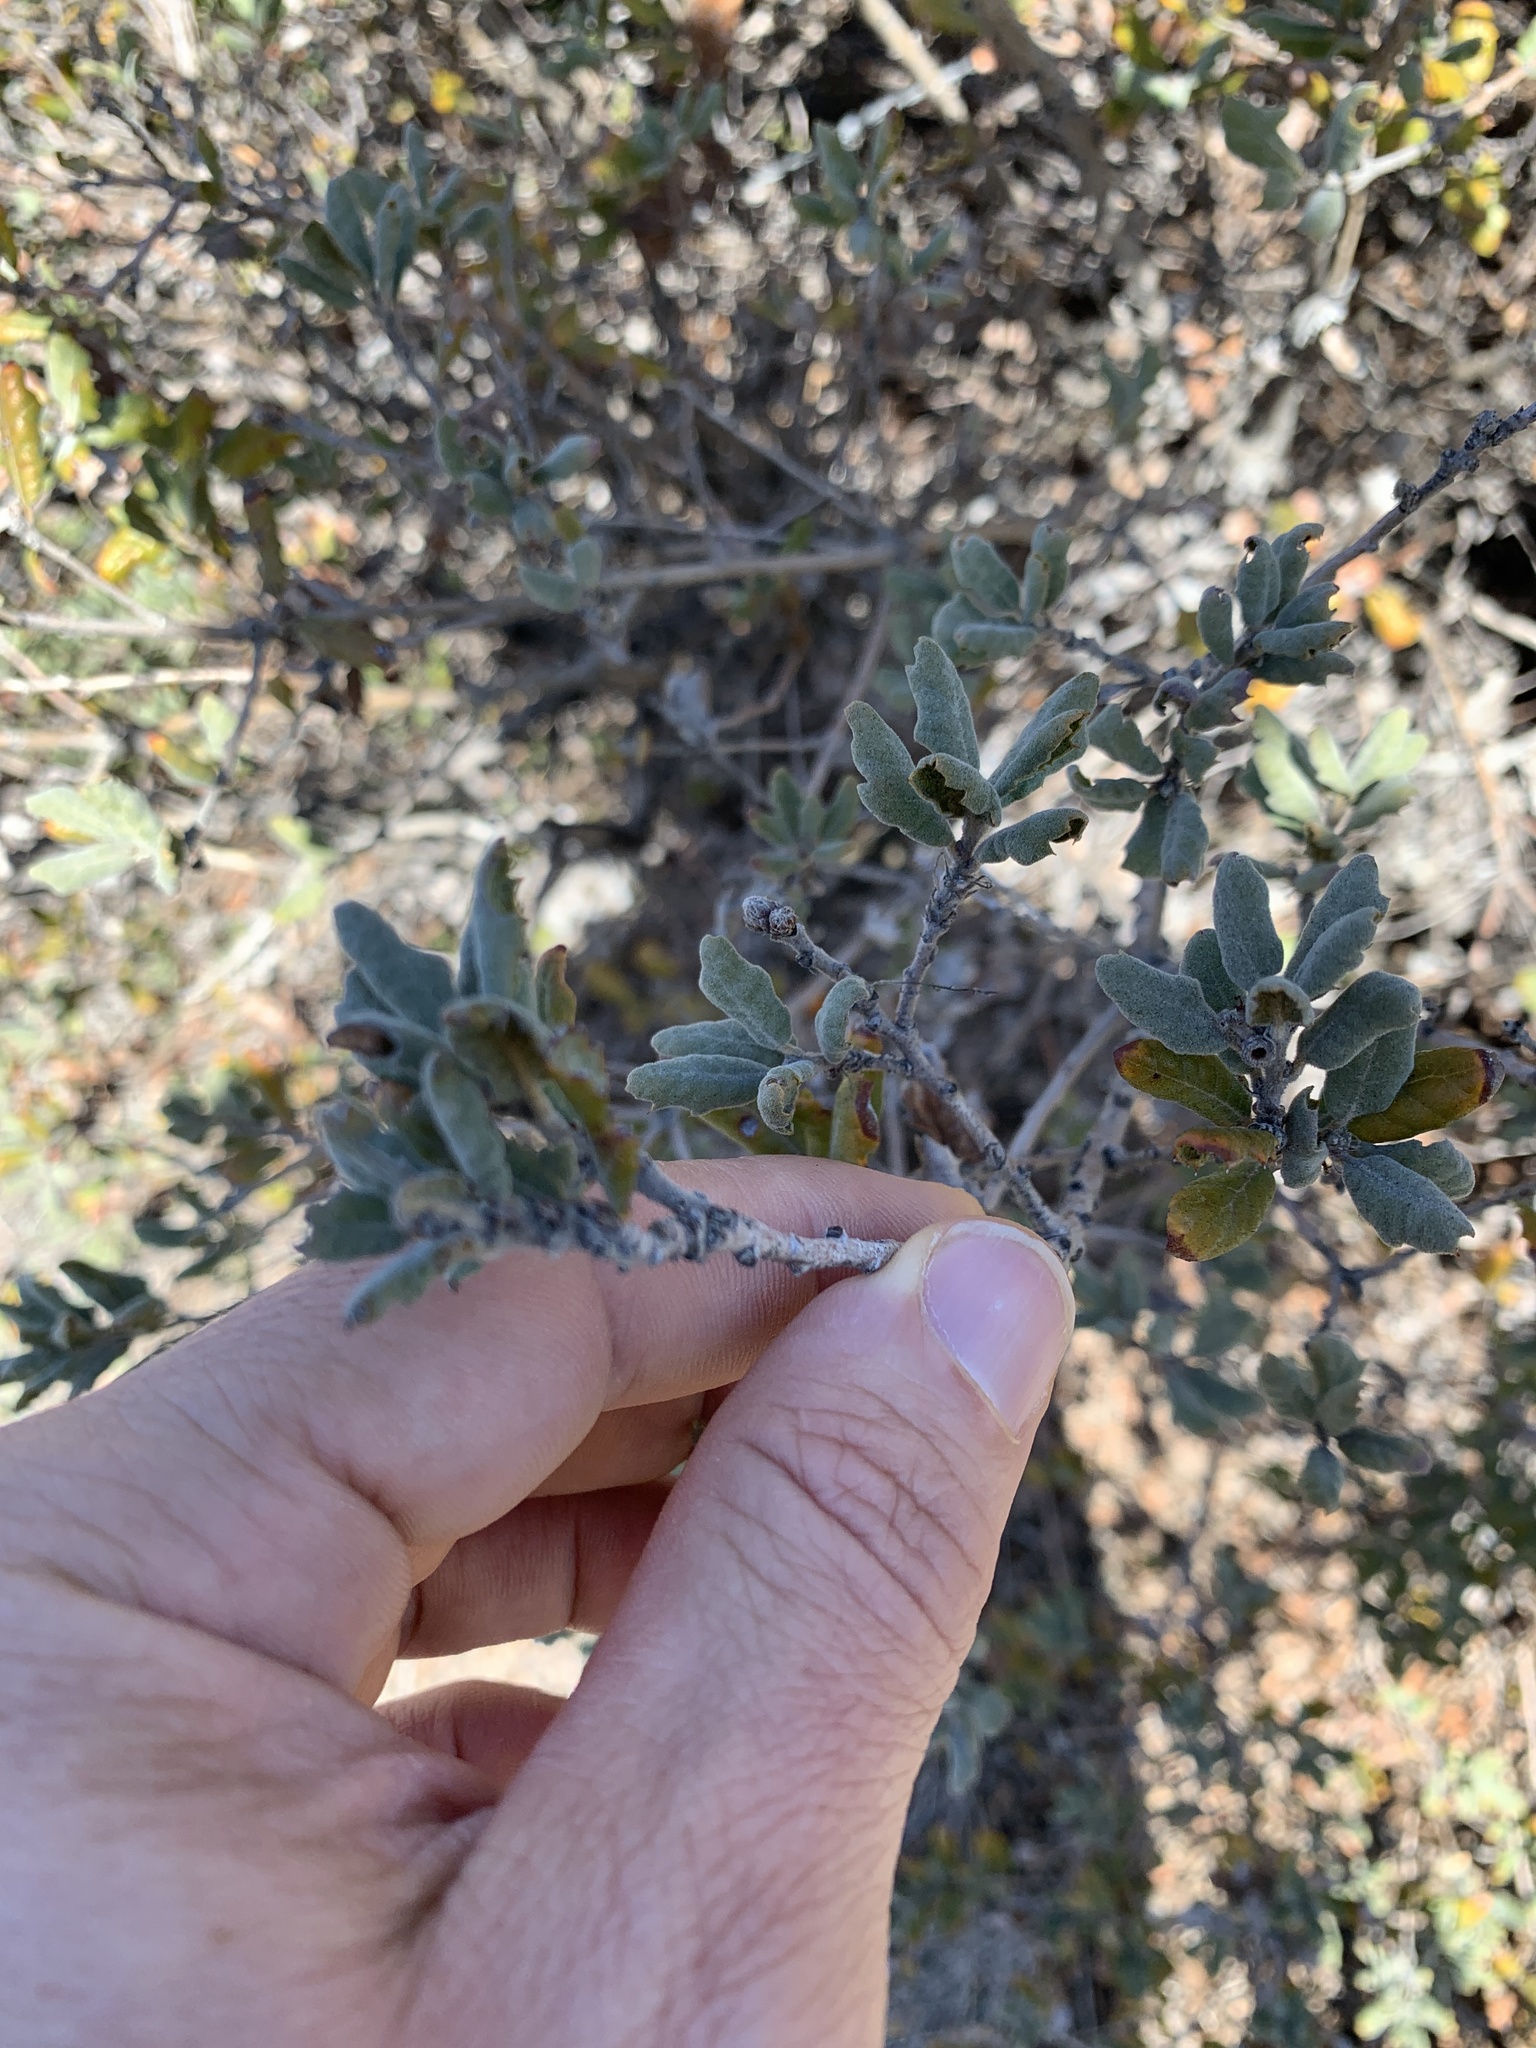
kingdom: Plantae
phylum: Tracheophyta
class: Magnoliopsida
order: Fagales
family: Fagaceae
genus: Quercus
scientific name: Quercus durata
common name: Leather oak
